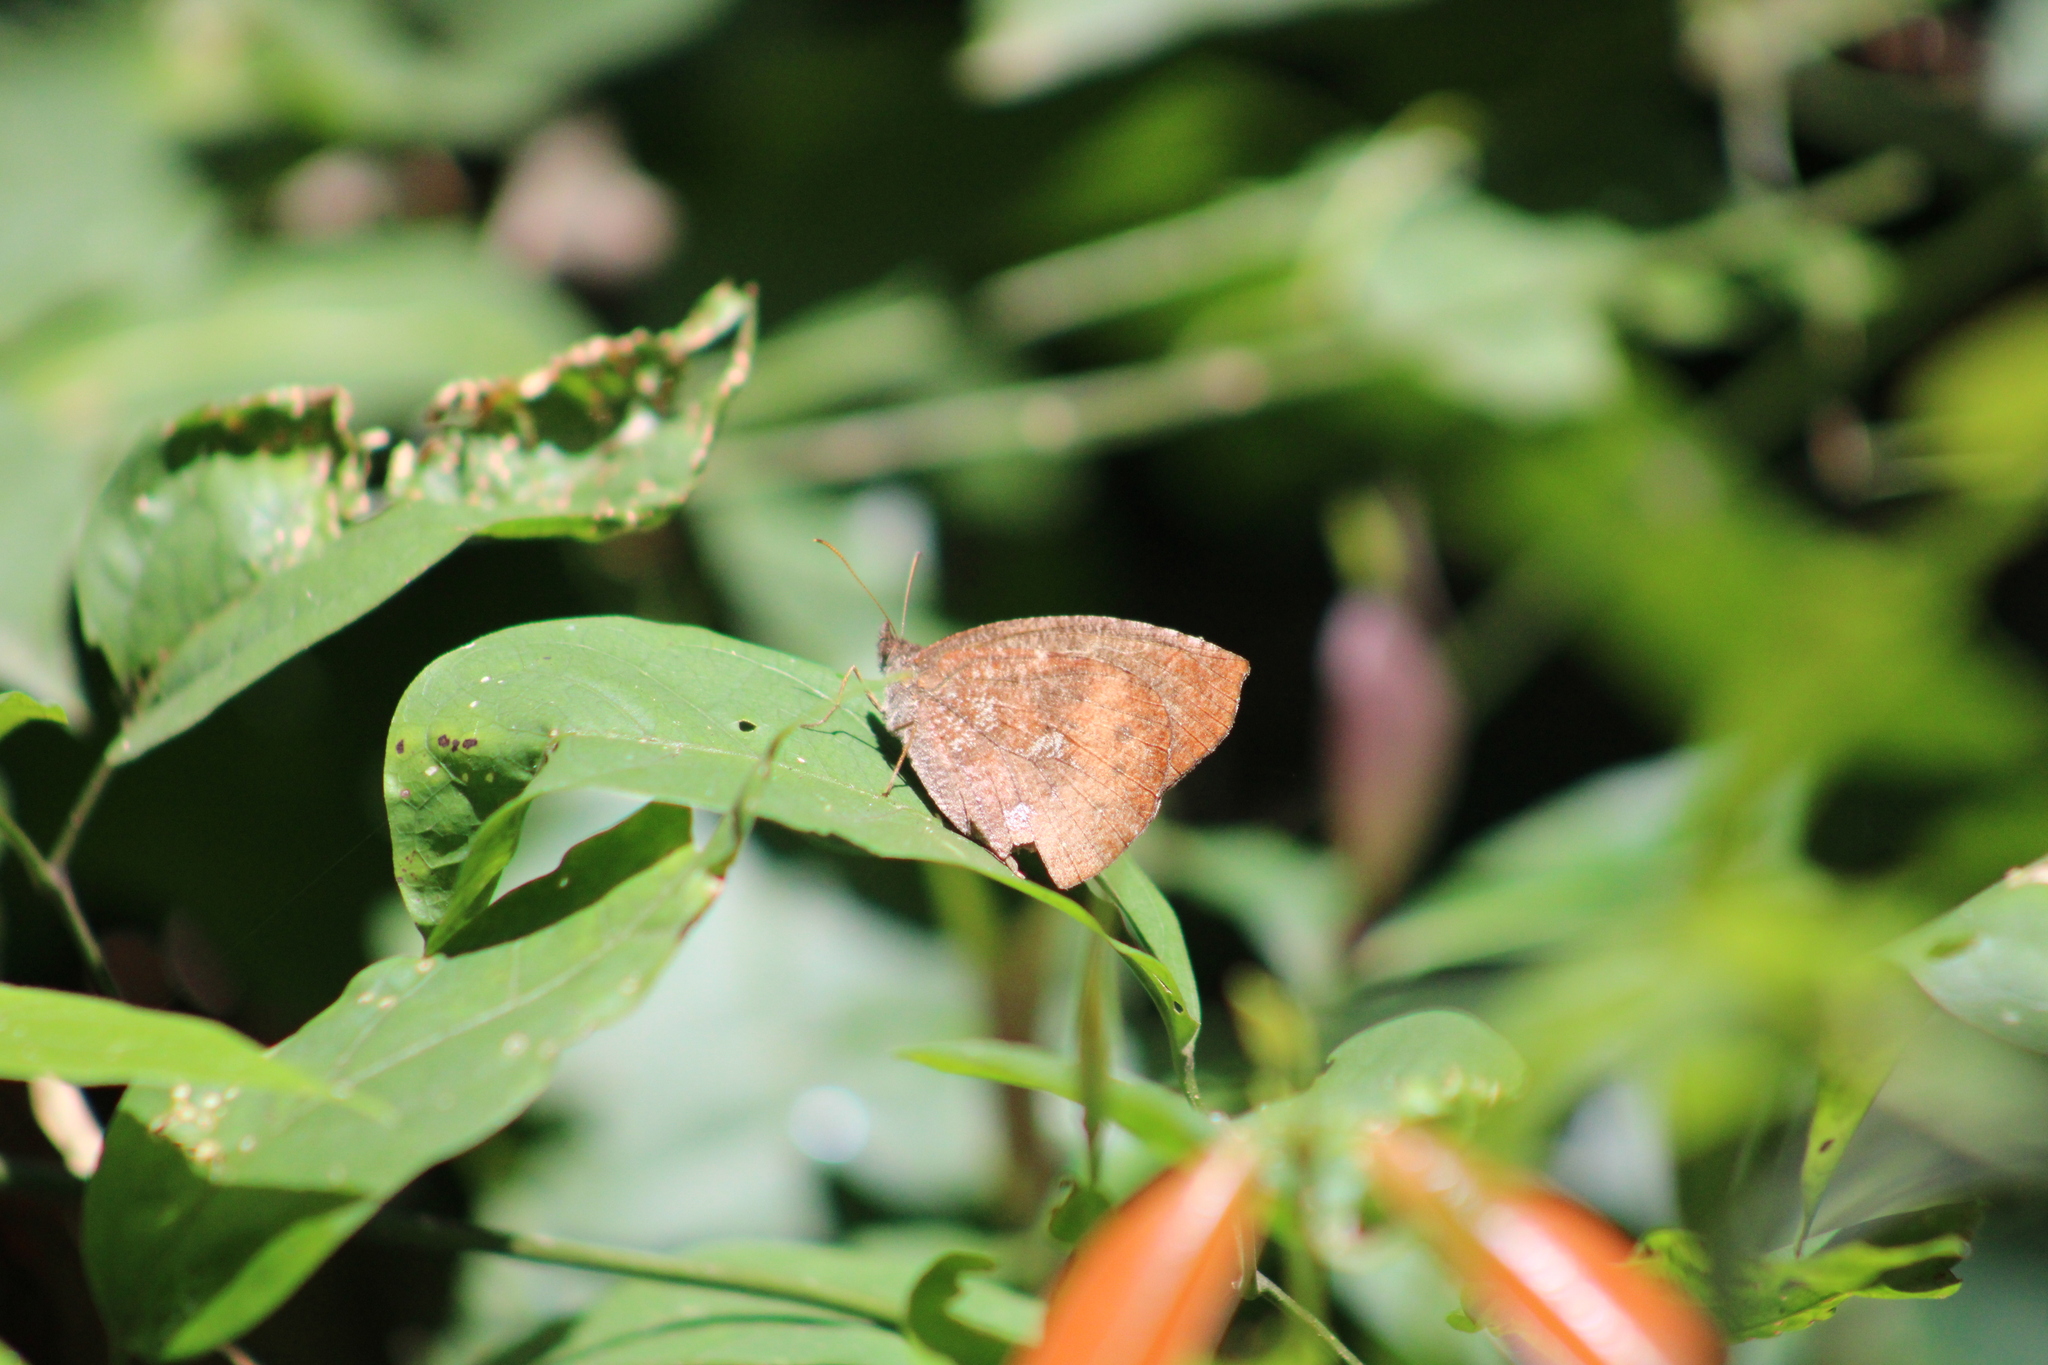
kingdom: Animalia
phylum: Arthropoda
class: Insecta
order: Lepidoptera
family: Nymphalidae
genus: Godartiana
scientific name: Godartiana muscosa
